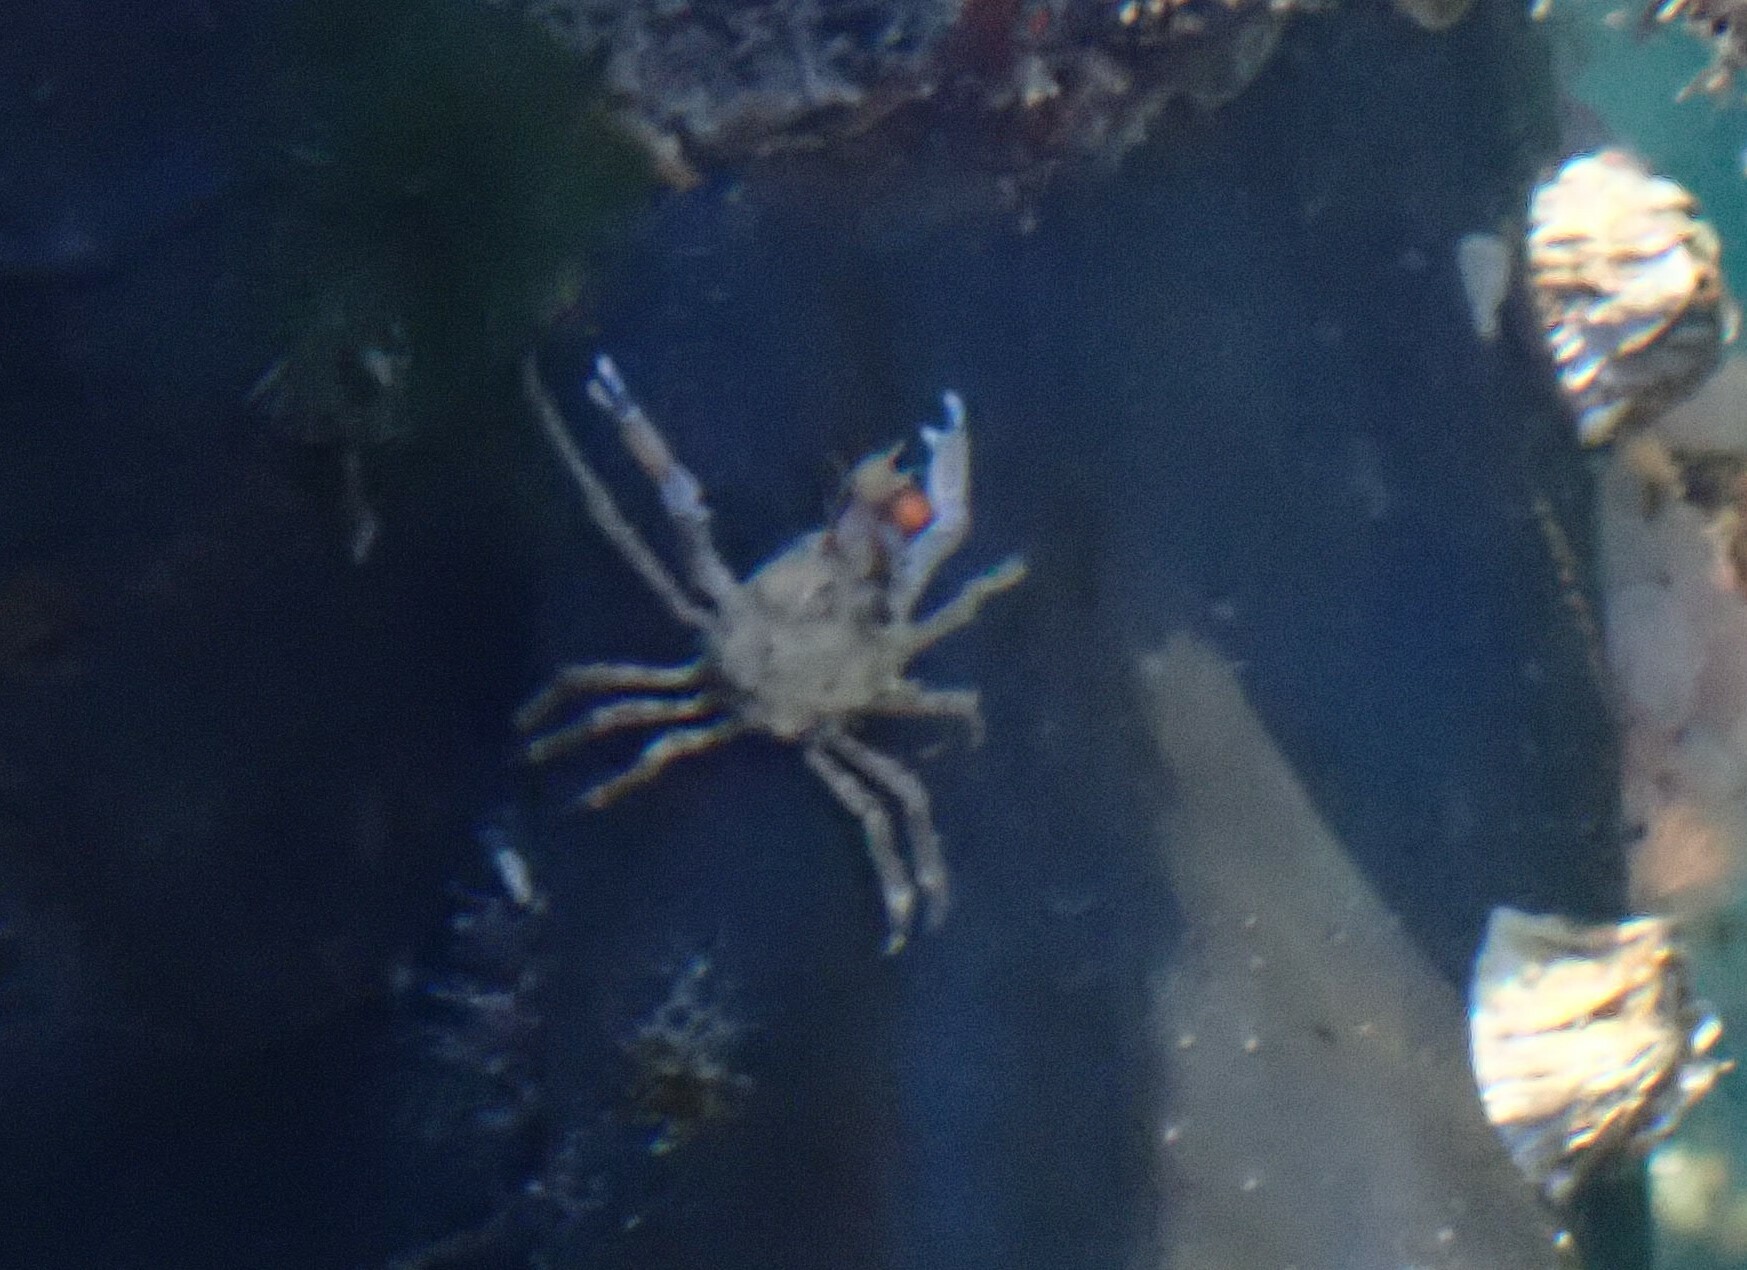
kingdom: Animalia
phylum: Arthropoda
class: Malacostraca
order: Decapoda
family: Epialtidae
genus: Pugettia
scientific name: Pugettia gracilis
